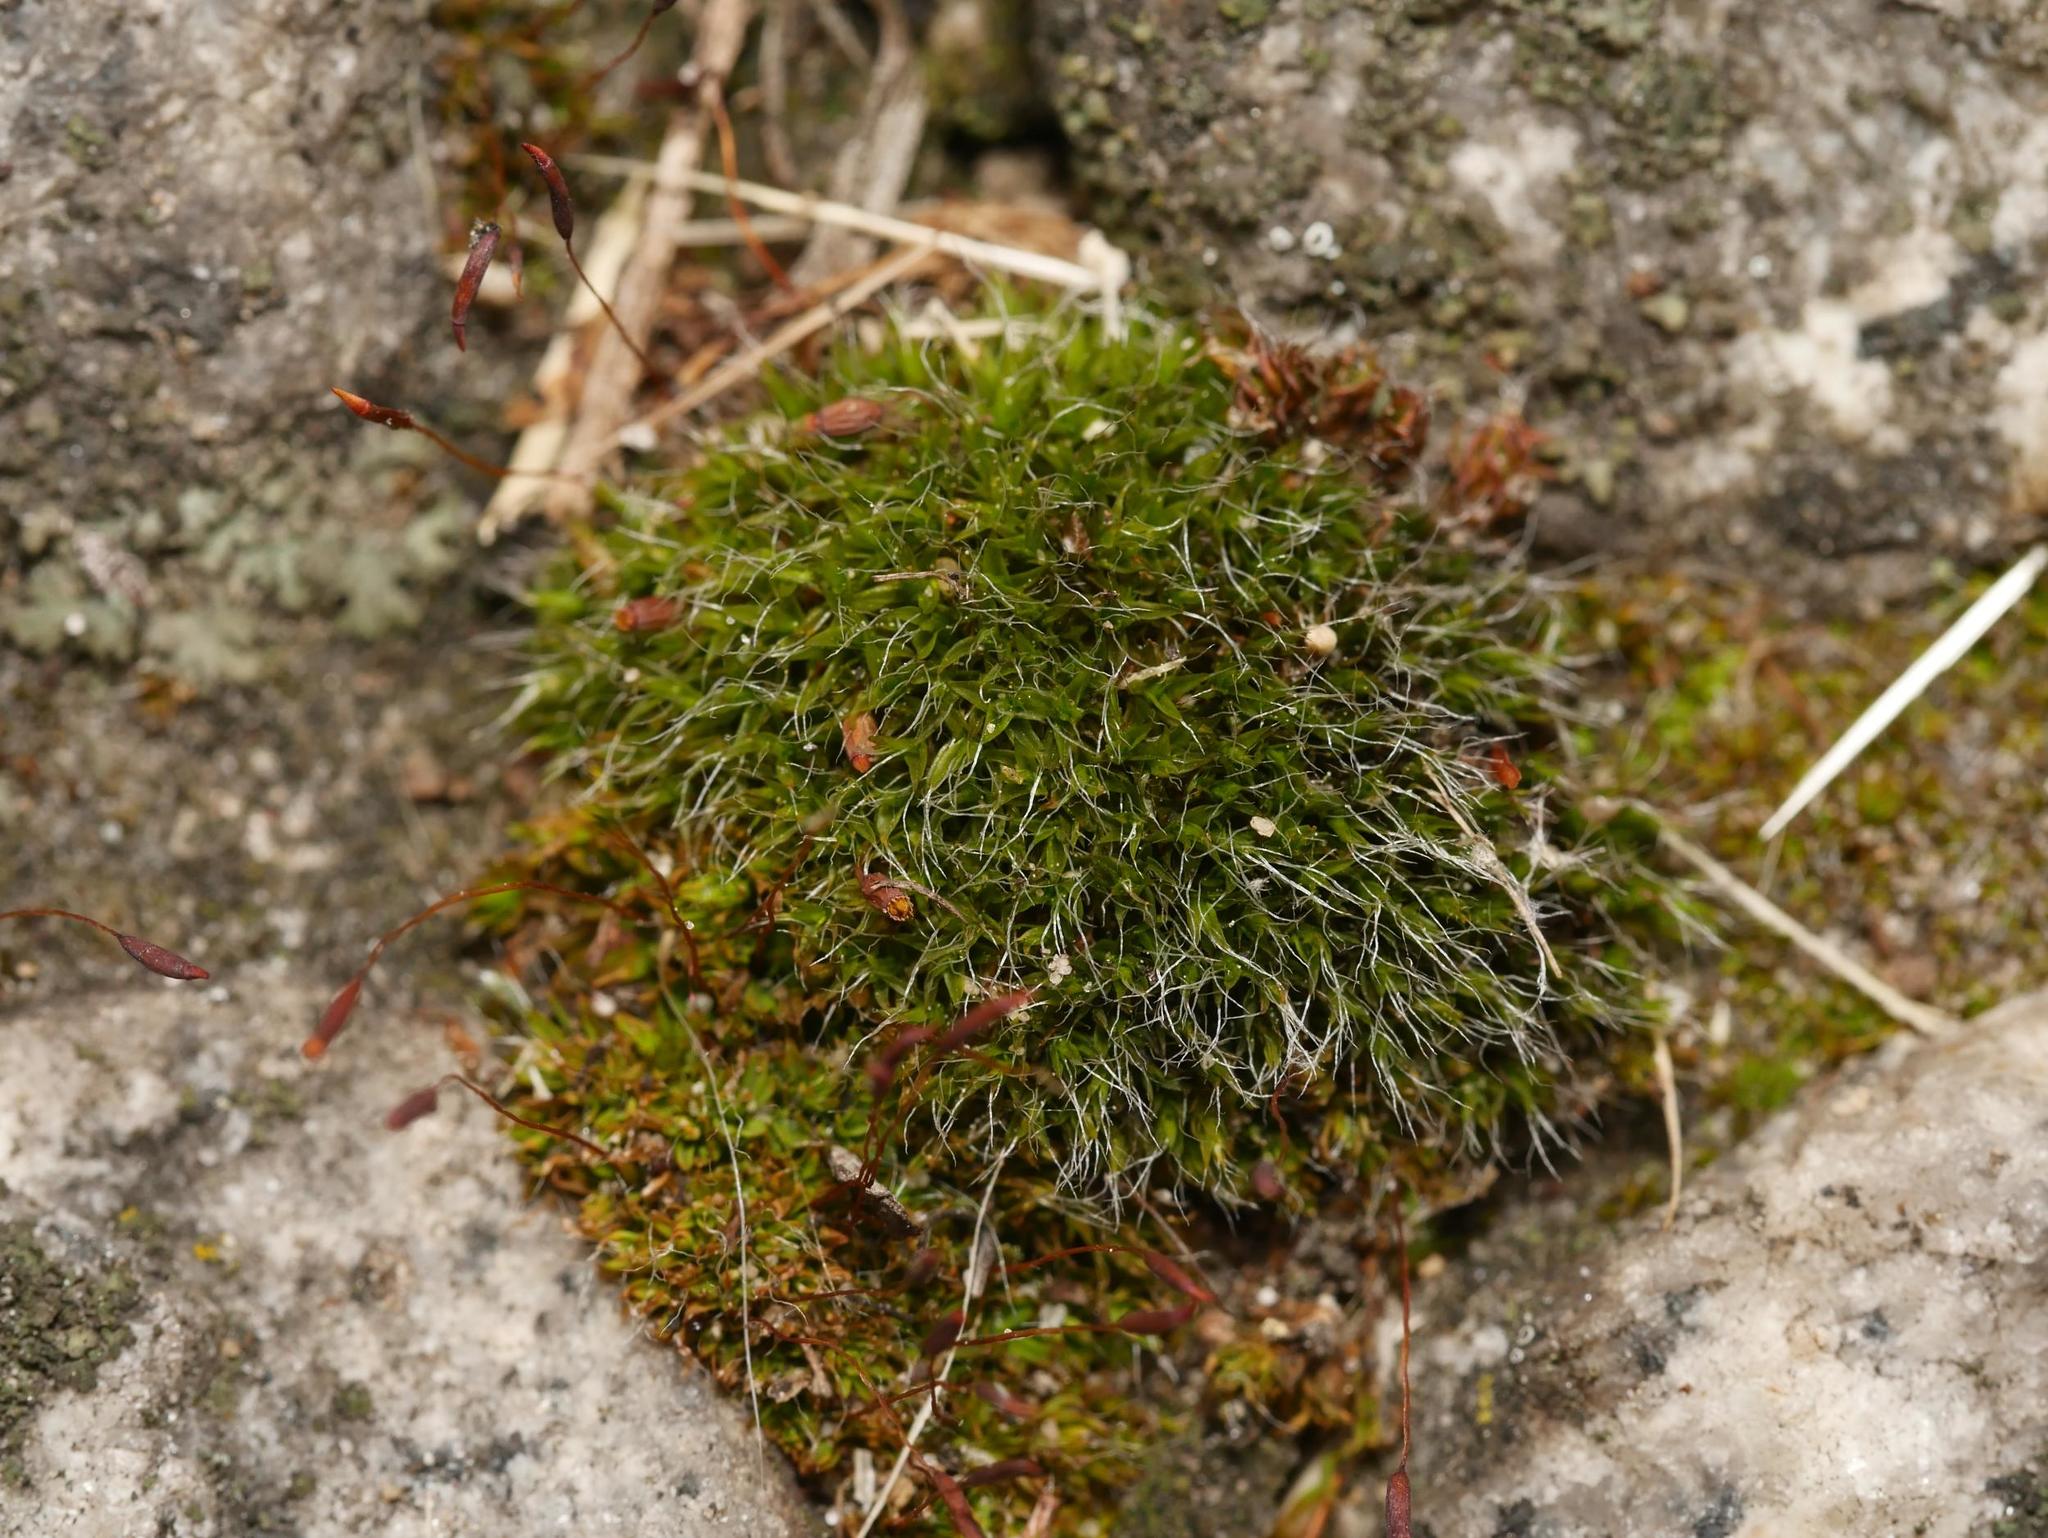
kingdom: Plantae
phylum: Bryophyta
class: Bryopsida
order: Grimmiales
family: Grimmiaceae
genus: Grimmia
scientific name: Grimmia pulvinata
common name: Grey-cushioned grimmia
